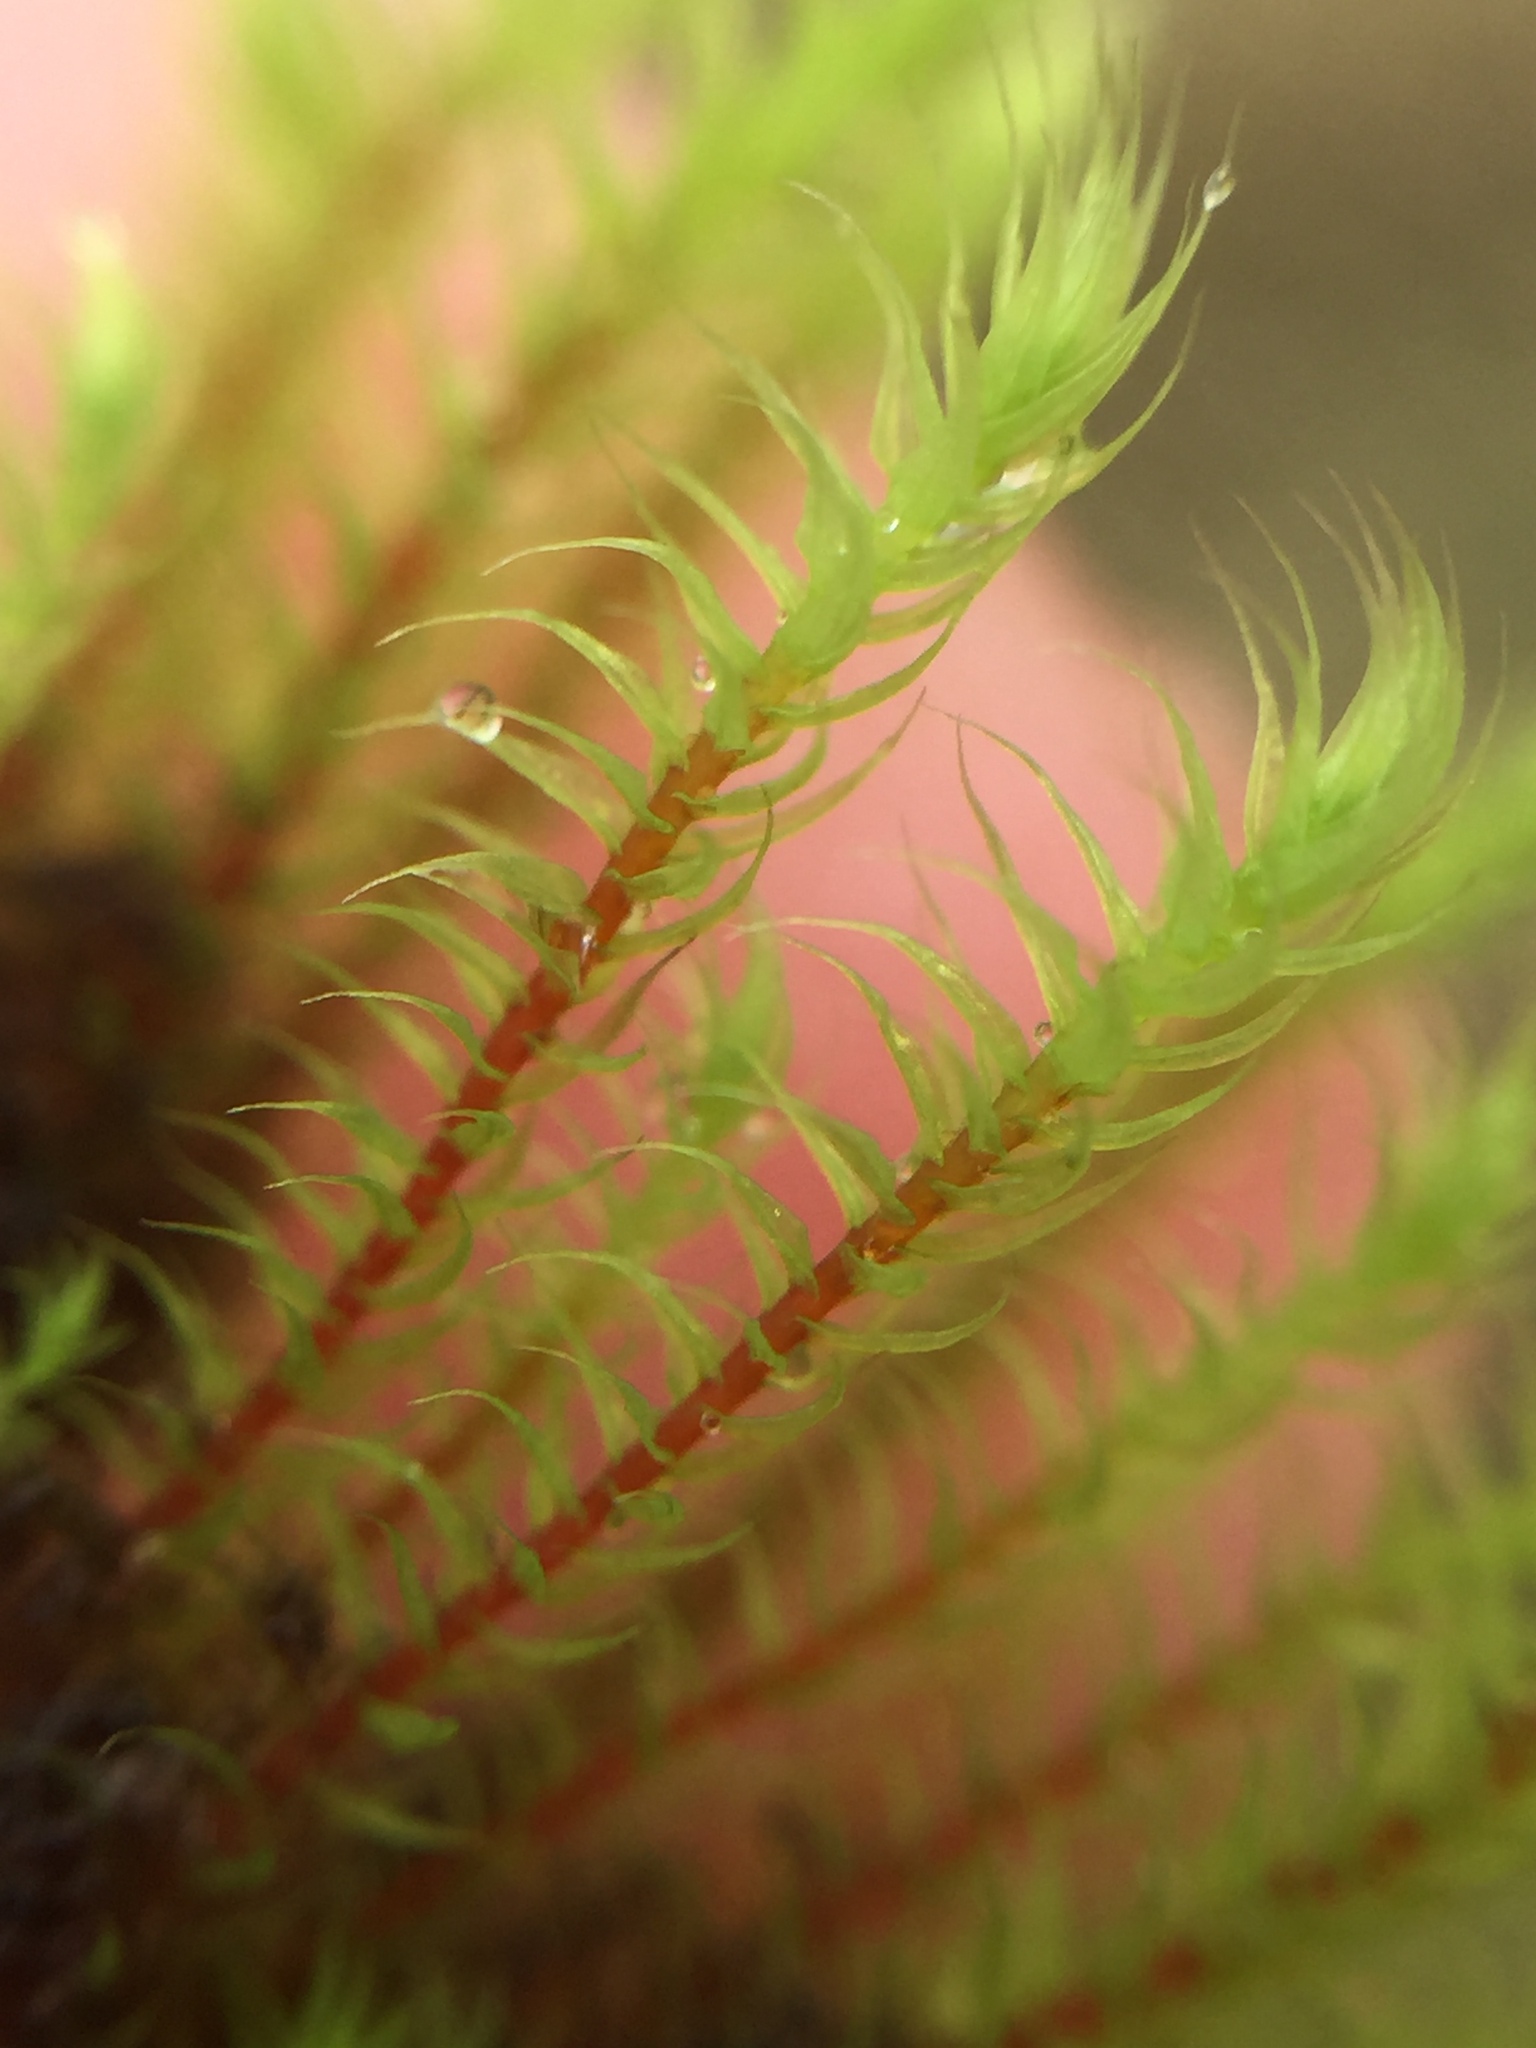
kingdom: Plantae
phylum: Bryophyta
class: Bryopsida
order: Bartramiales
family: Bartramiaceae
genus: Philonotis
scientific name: Philonotis tenuis
